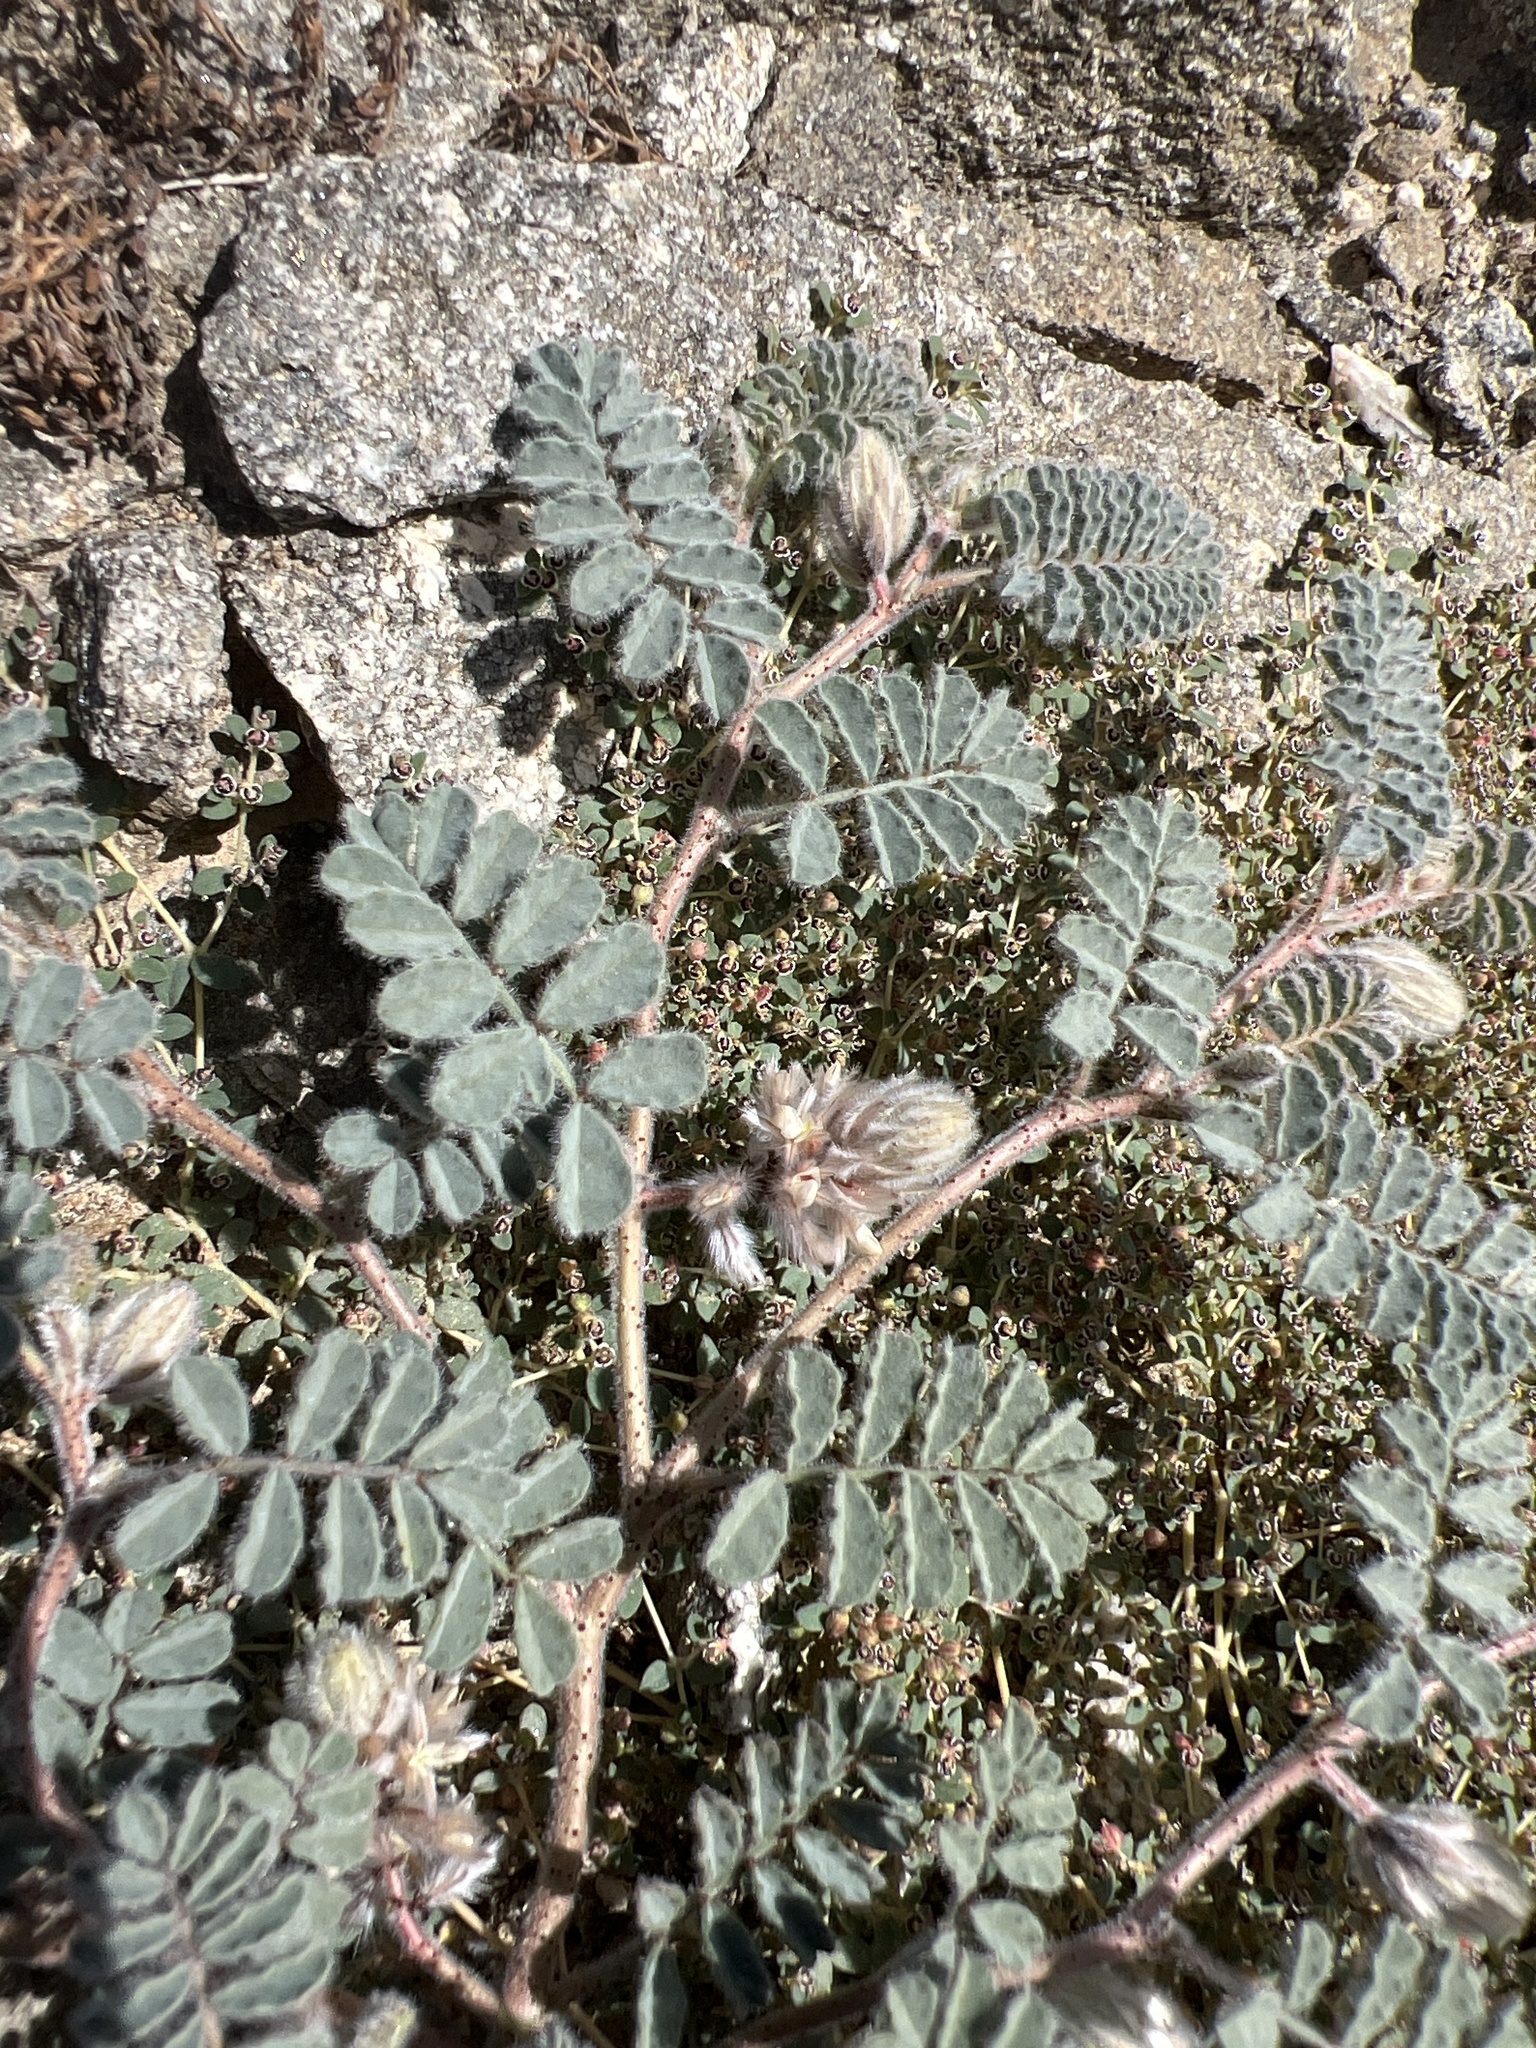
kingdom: Plantae
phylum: Tracheophyta
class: Magnoliopsida
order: Fabales
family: Fabaceae
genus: Dalea
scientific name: Dalea mollissima
